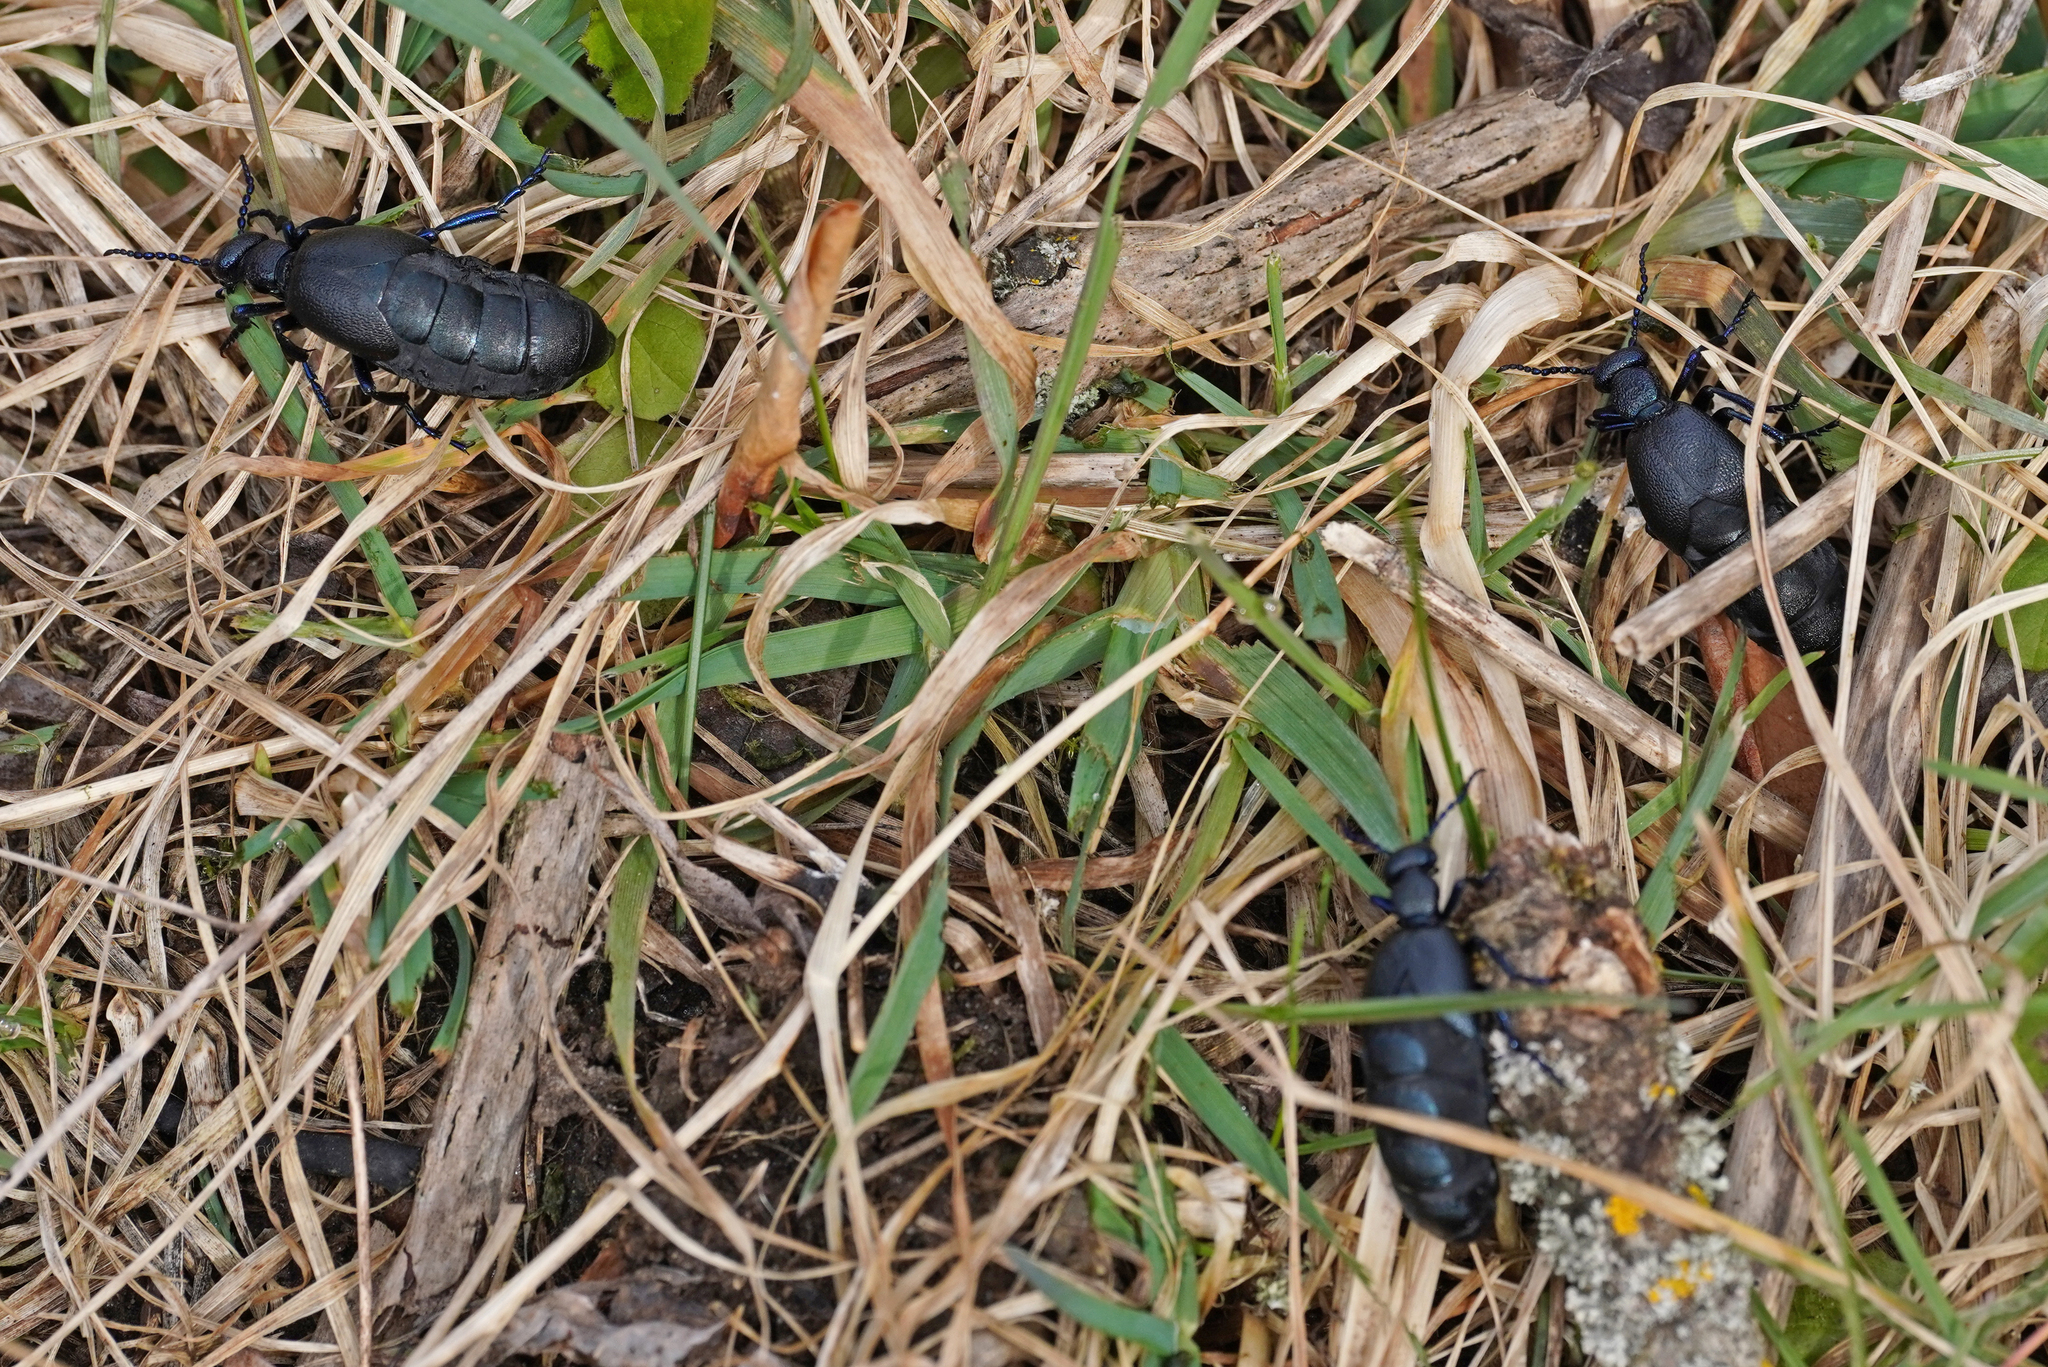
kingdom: Animalia
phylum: Arthropoda
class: Insecta
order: Coleoptera
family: Meloidae
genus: Meloe
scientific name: Meloe proscarabaeus
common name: Black oil-beetle
